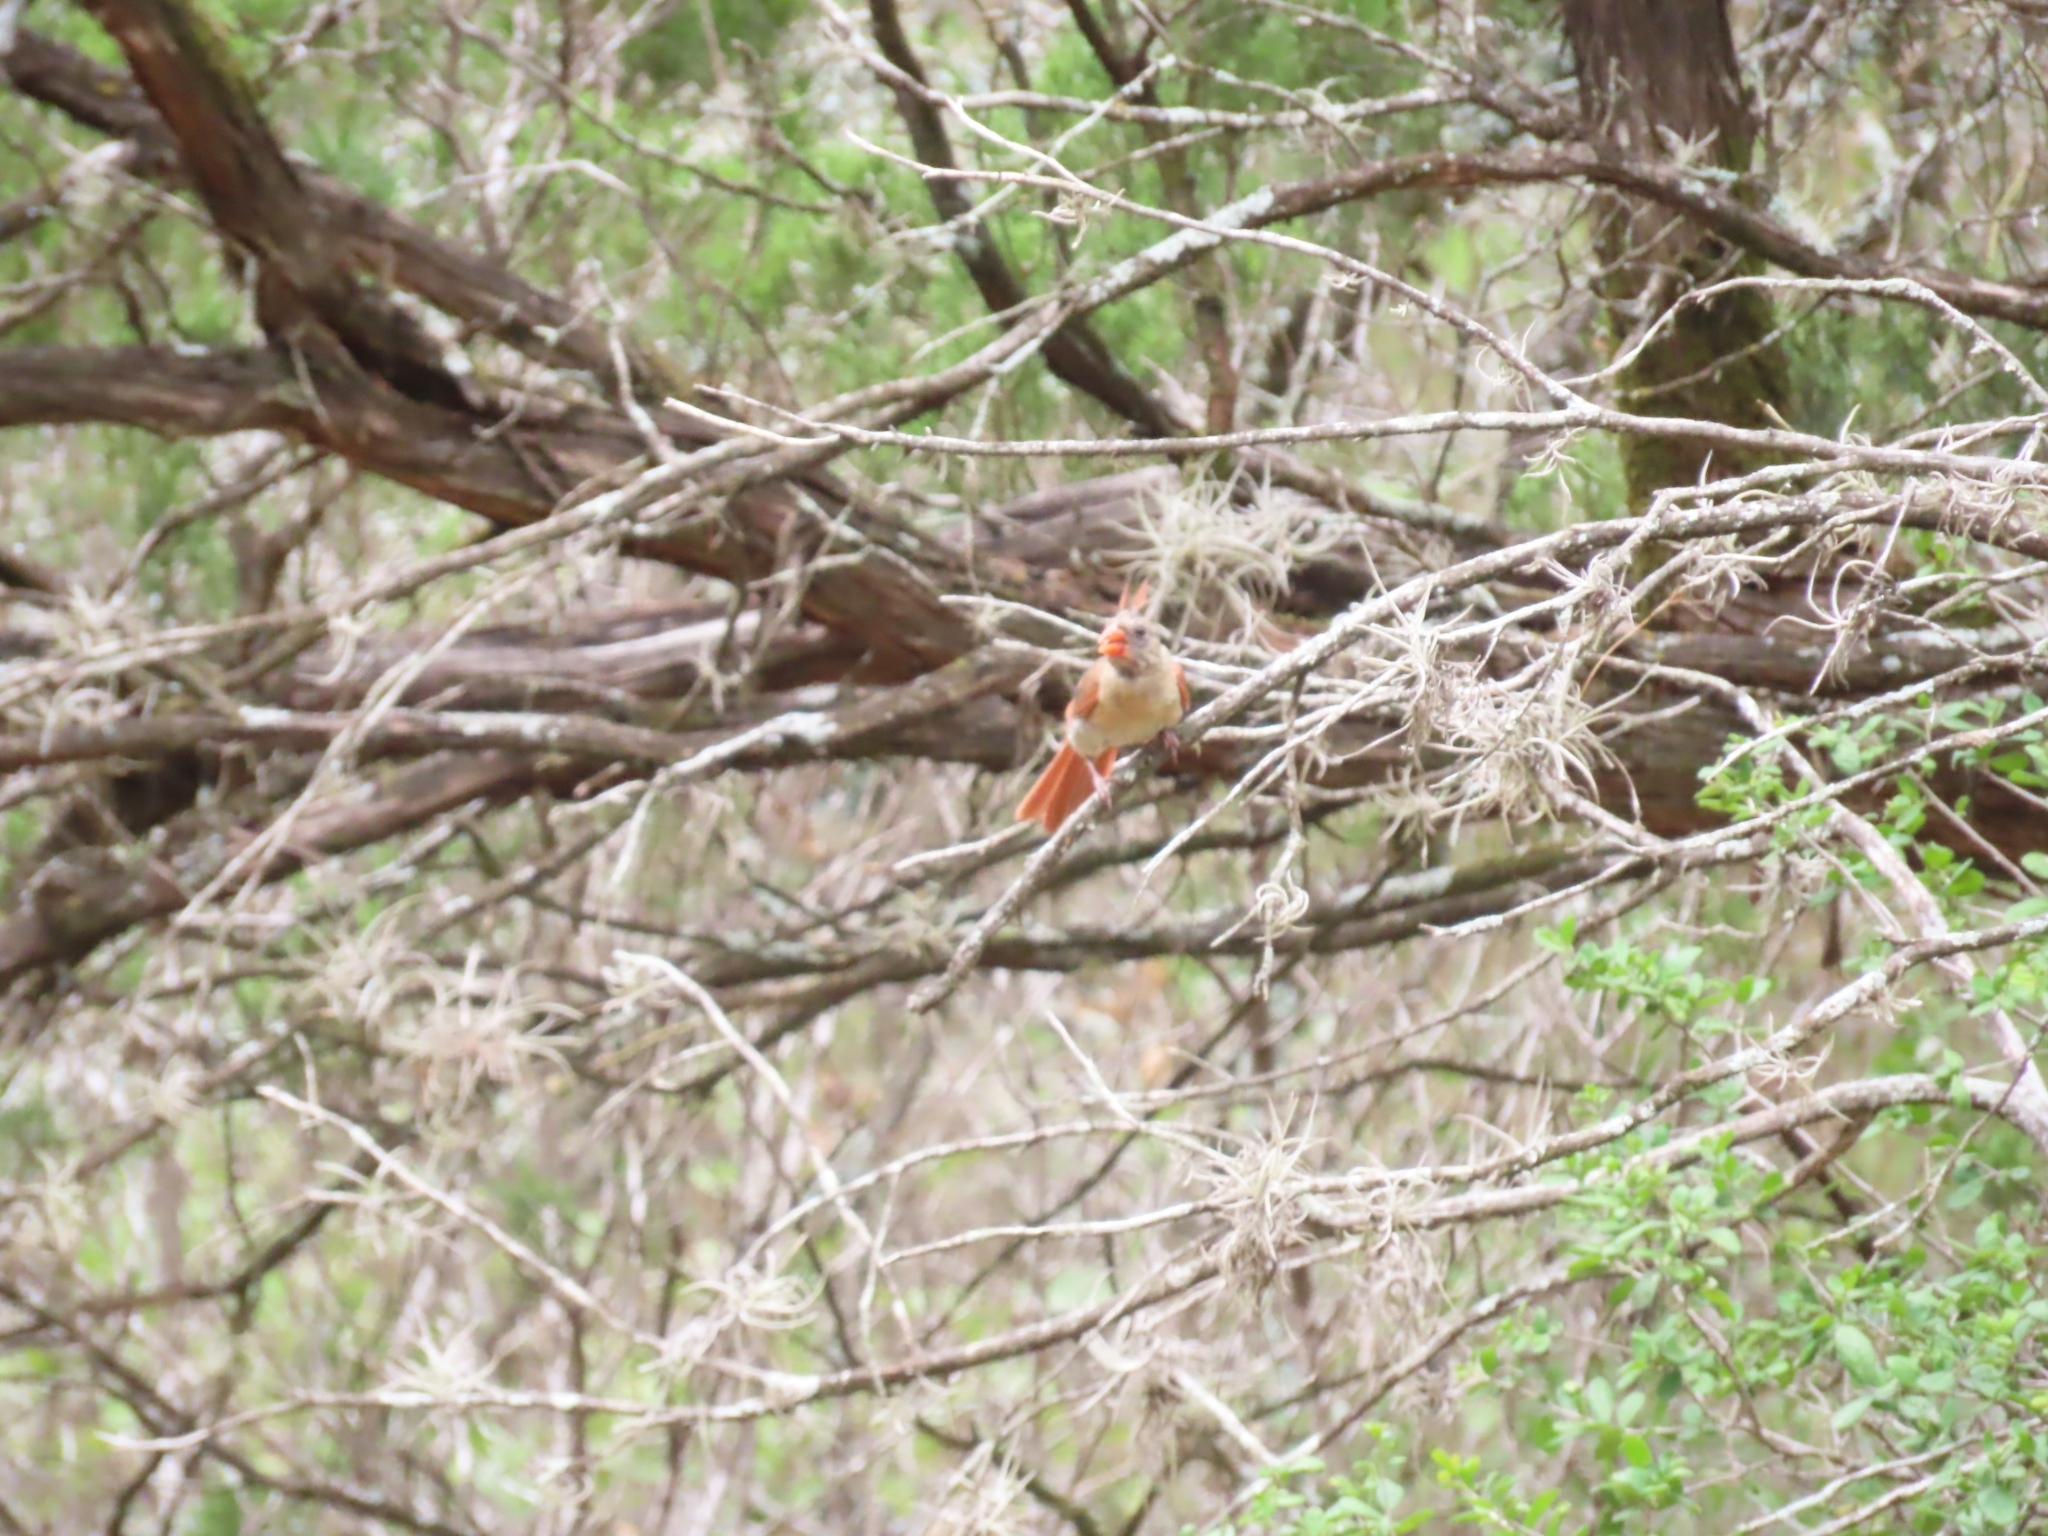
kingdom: Animalia
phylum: Chordata
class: Aves
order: Passeriformes
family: Cardinalidae
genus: Cardinalis
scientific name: Cardinalis cardinalis
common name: Northern cardinal
